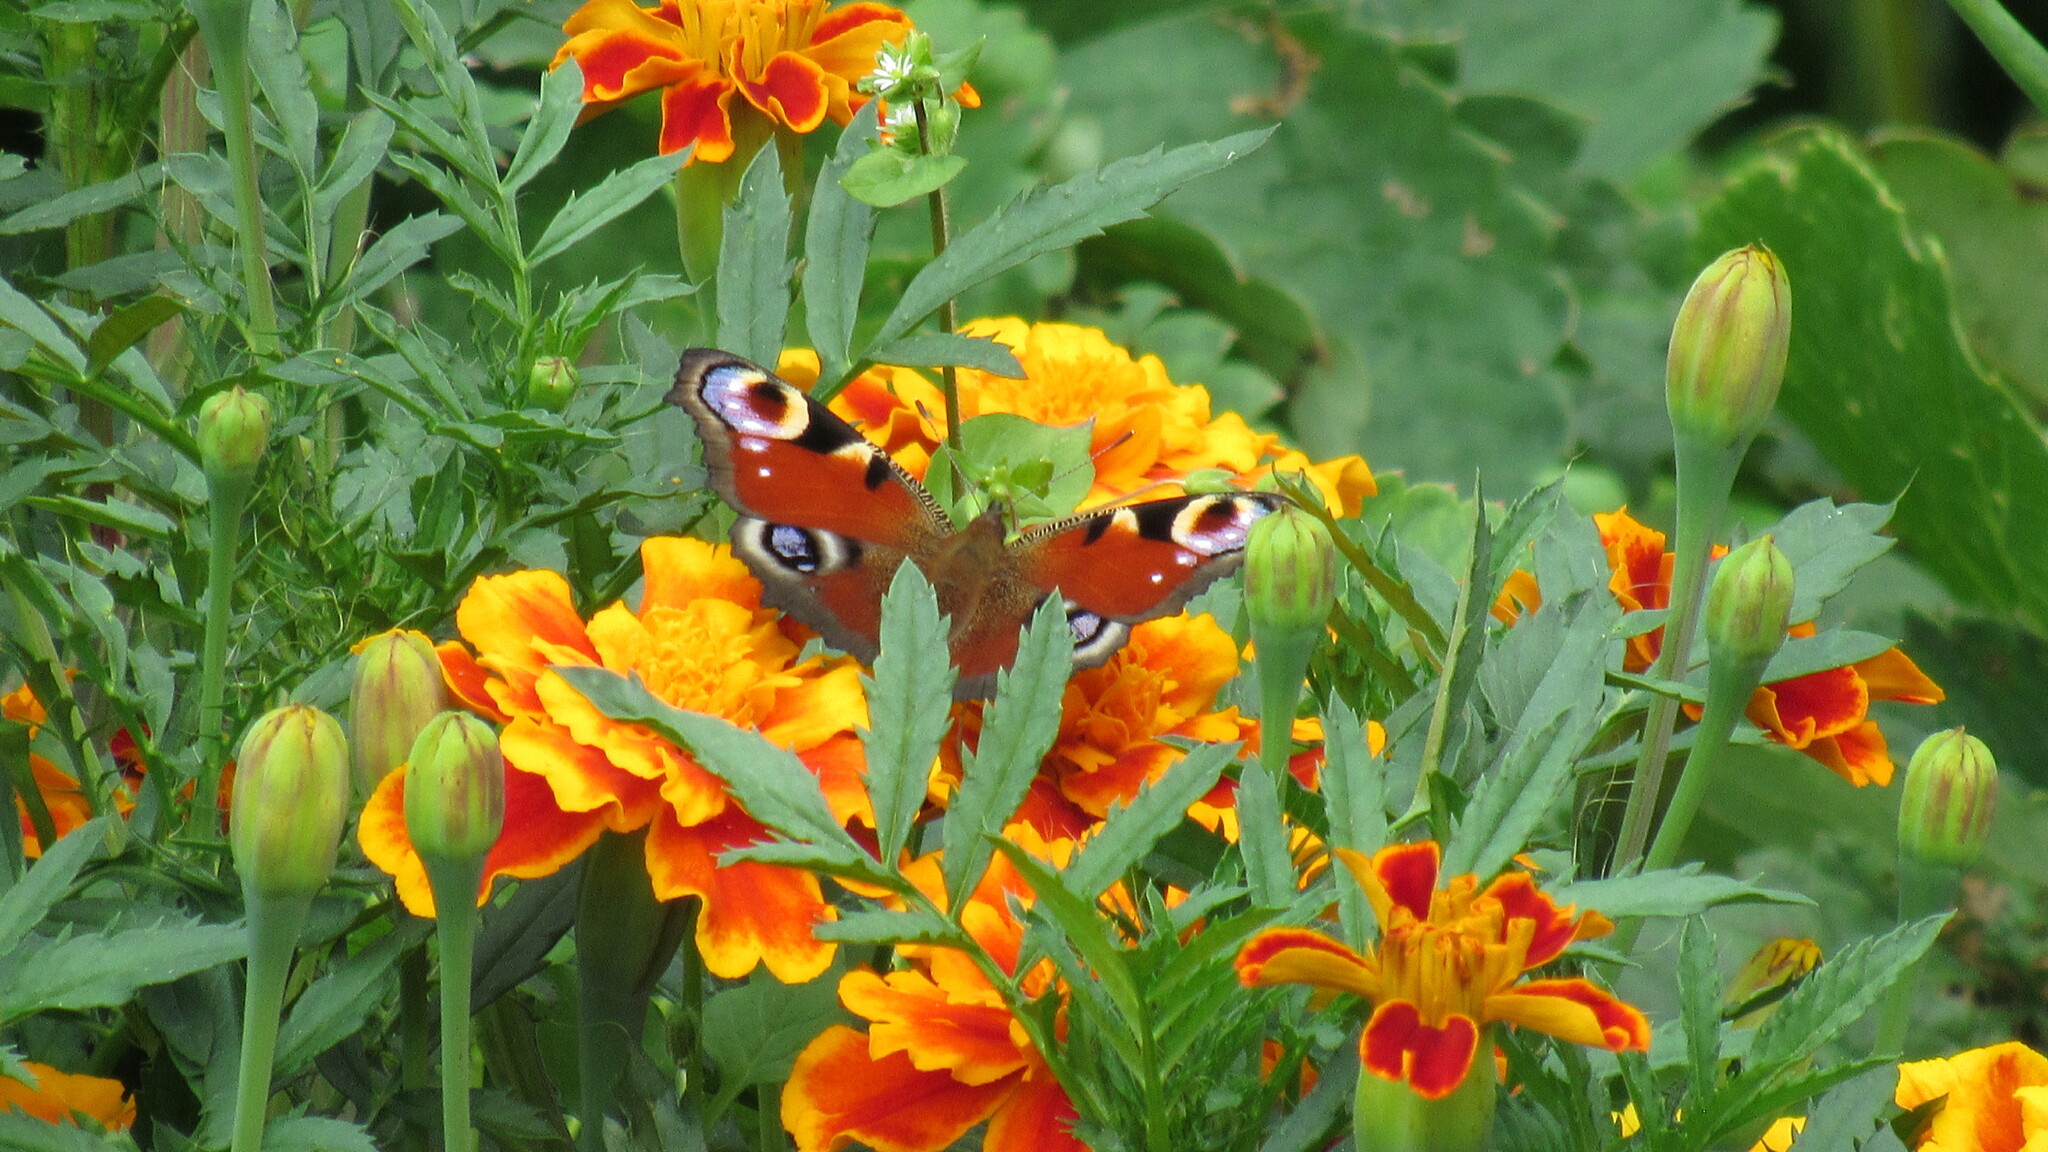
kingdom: Animalia
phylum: Arthropoda
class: Insecta
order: Lepidoptera
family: Nymphalidae
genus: Aglais
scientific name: Aglais io
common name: Peacock
